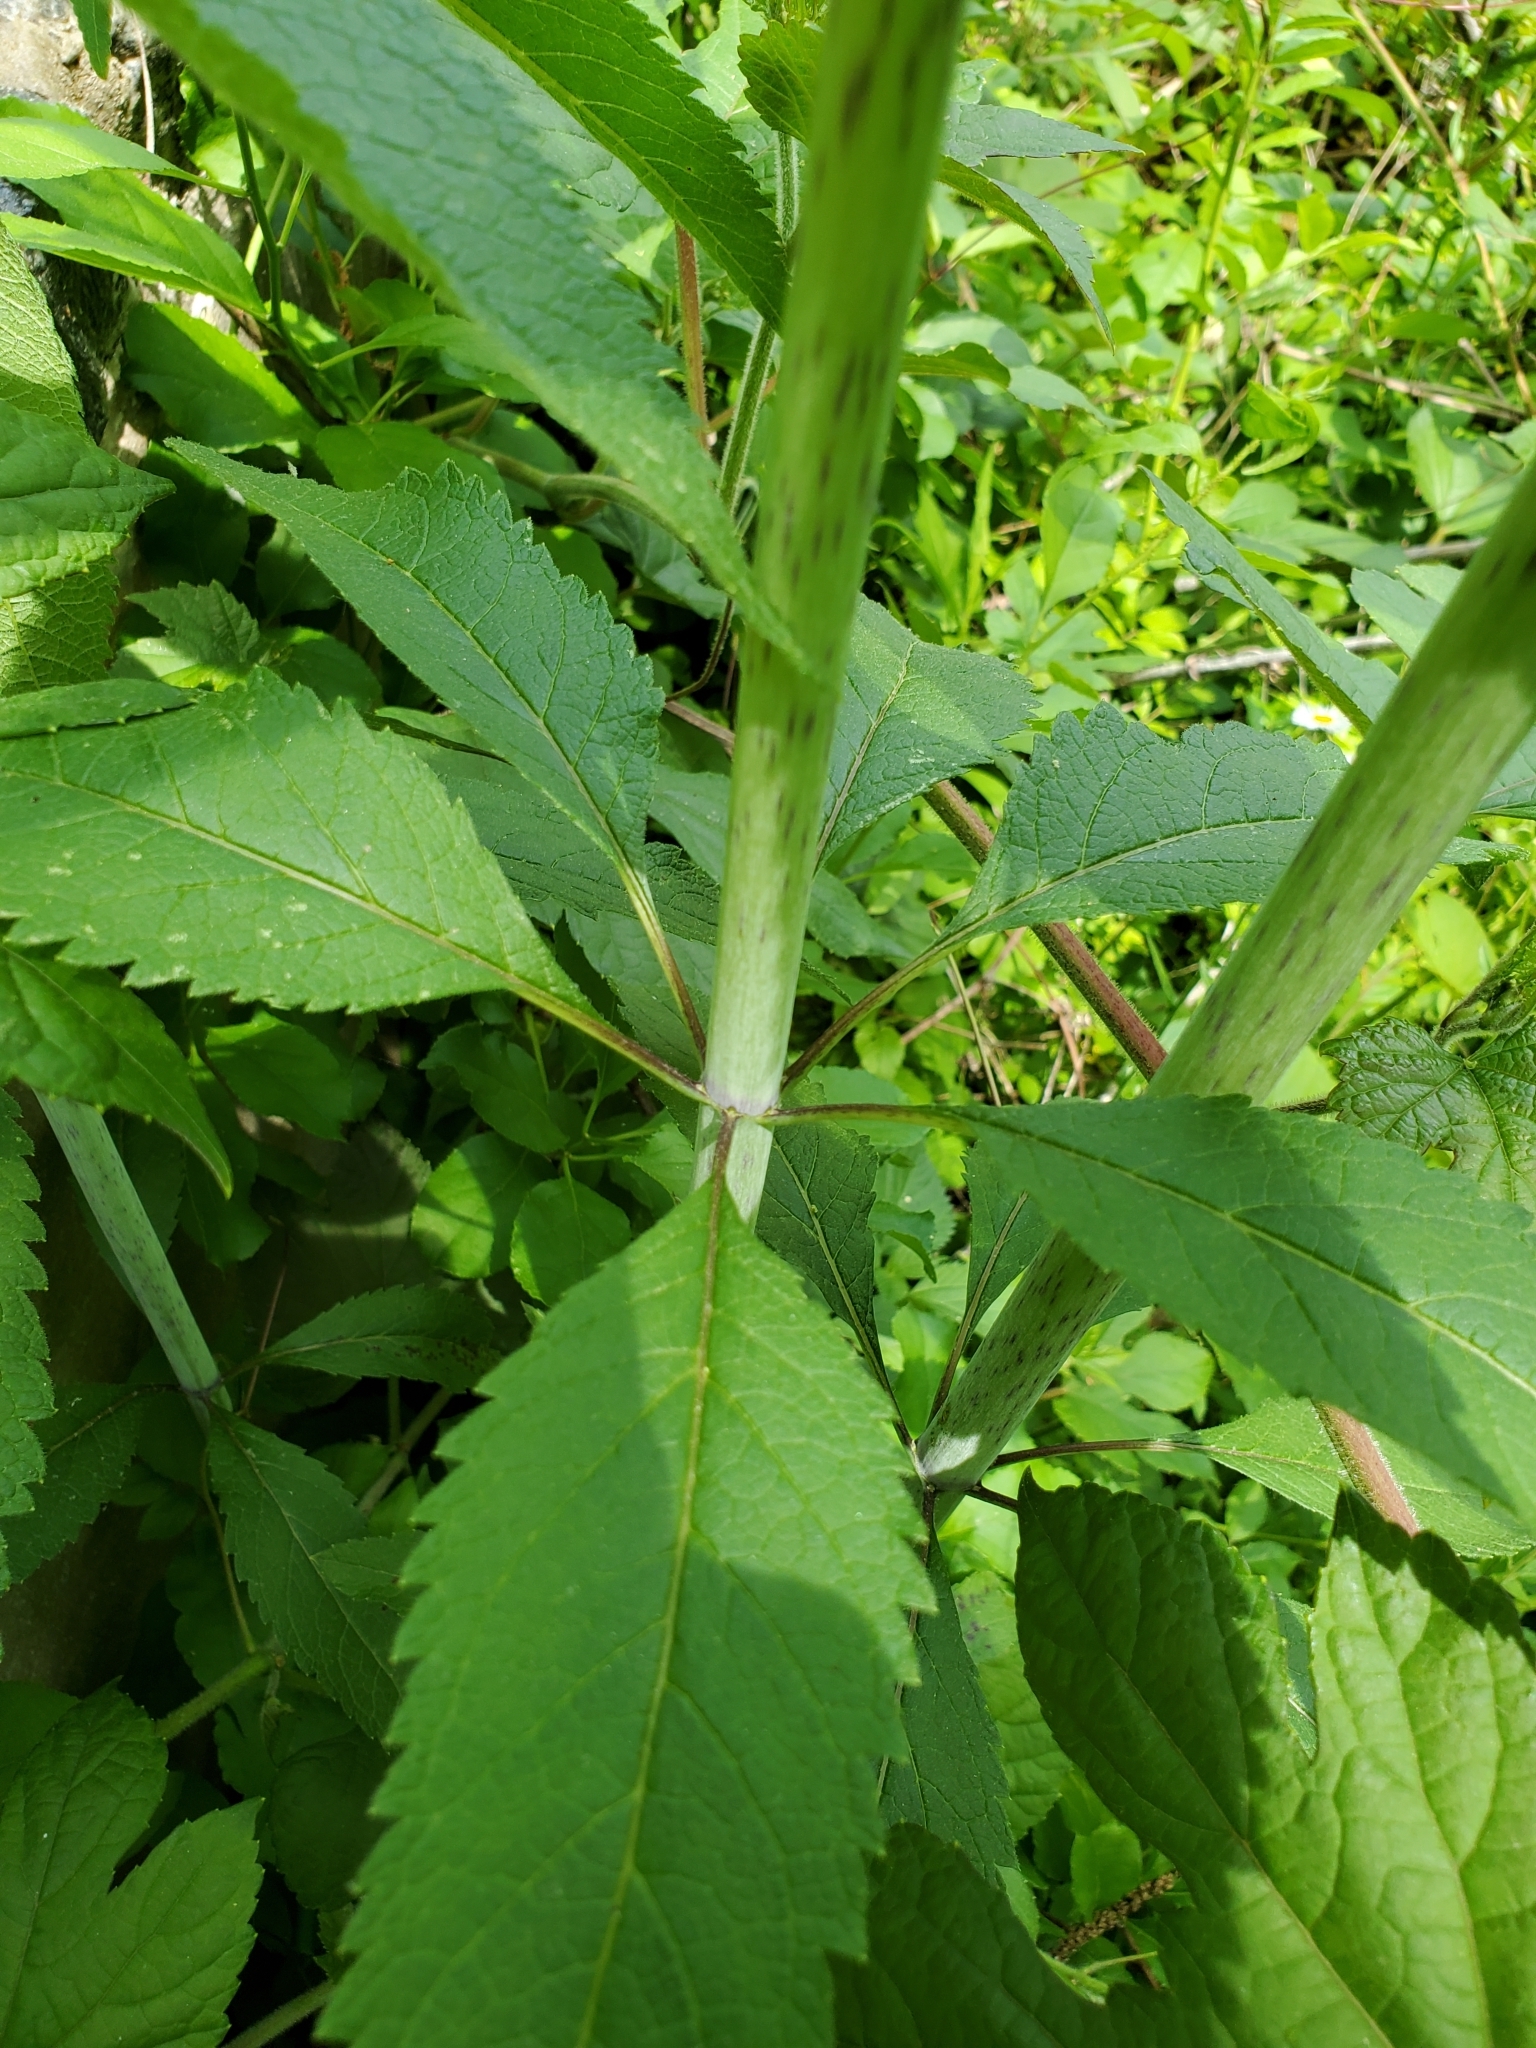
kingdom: Plantae
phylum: Tracheophyta
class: Magnoliopsida
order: Asterales
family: Asteraceae
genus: Eutrochium
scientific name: Eutrochium fistulosum
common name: Trumpetweed
